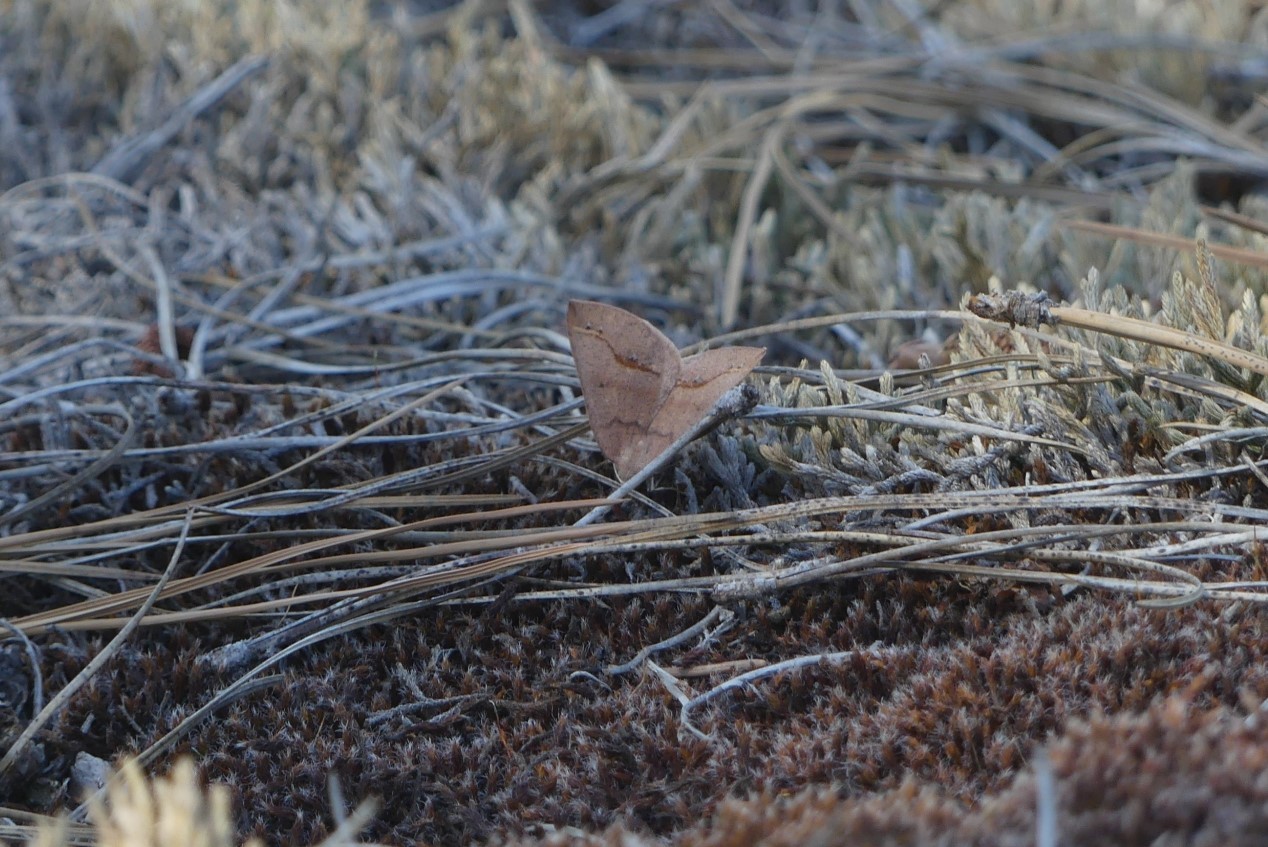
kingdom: Animalia
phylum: Arthropoda
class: Insecta
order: Lepidoptera
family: Geometridae
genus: Drepanulatrix
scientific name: Drepanulatrix unicalcararia
